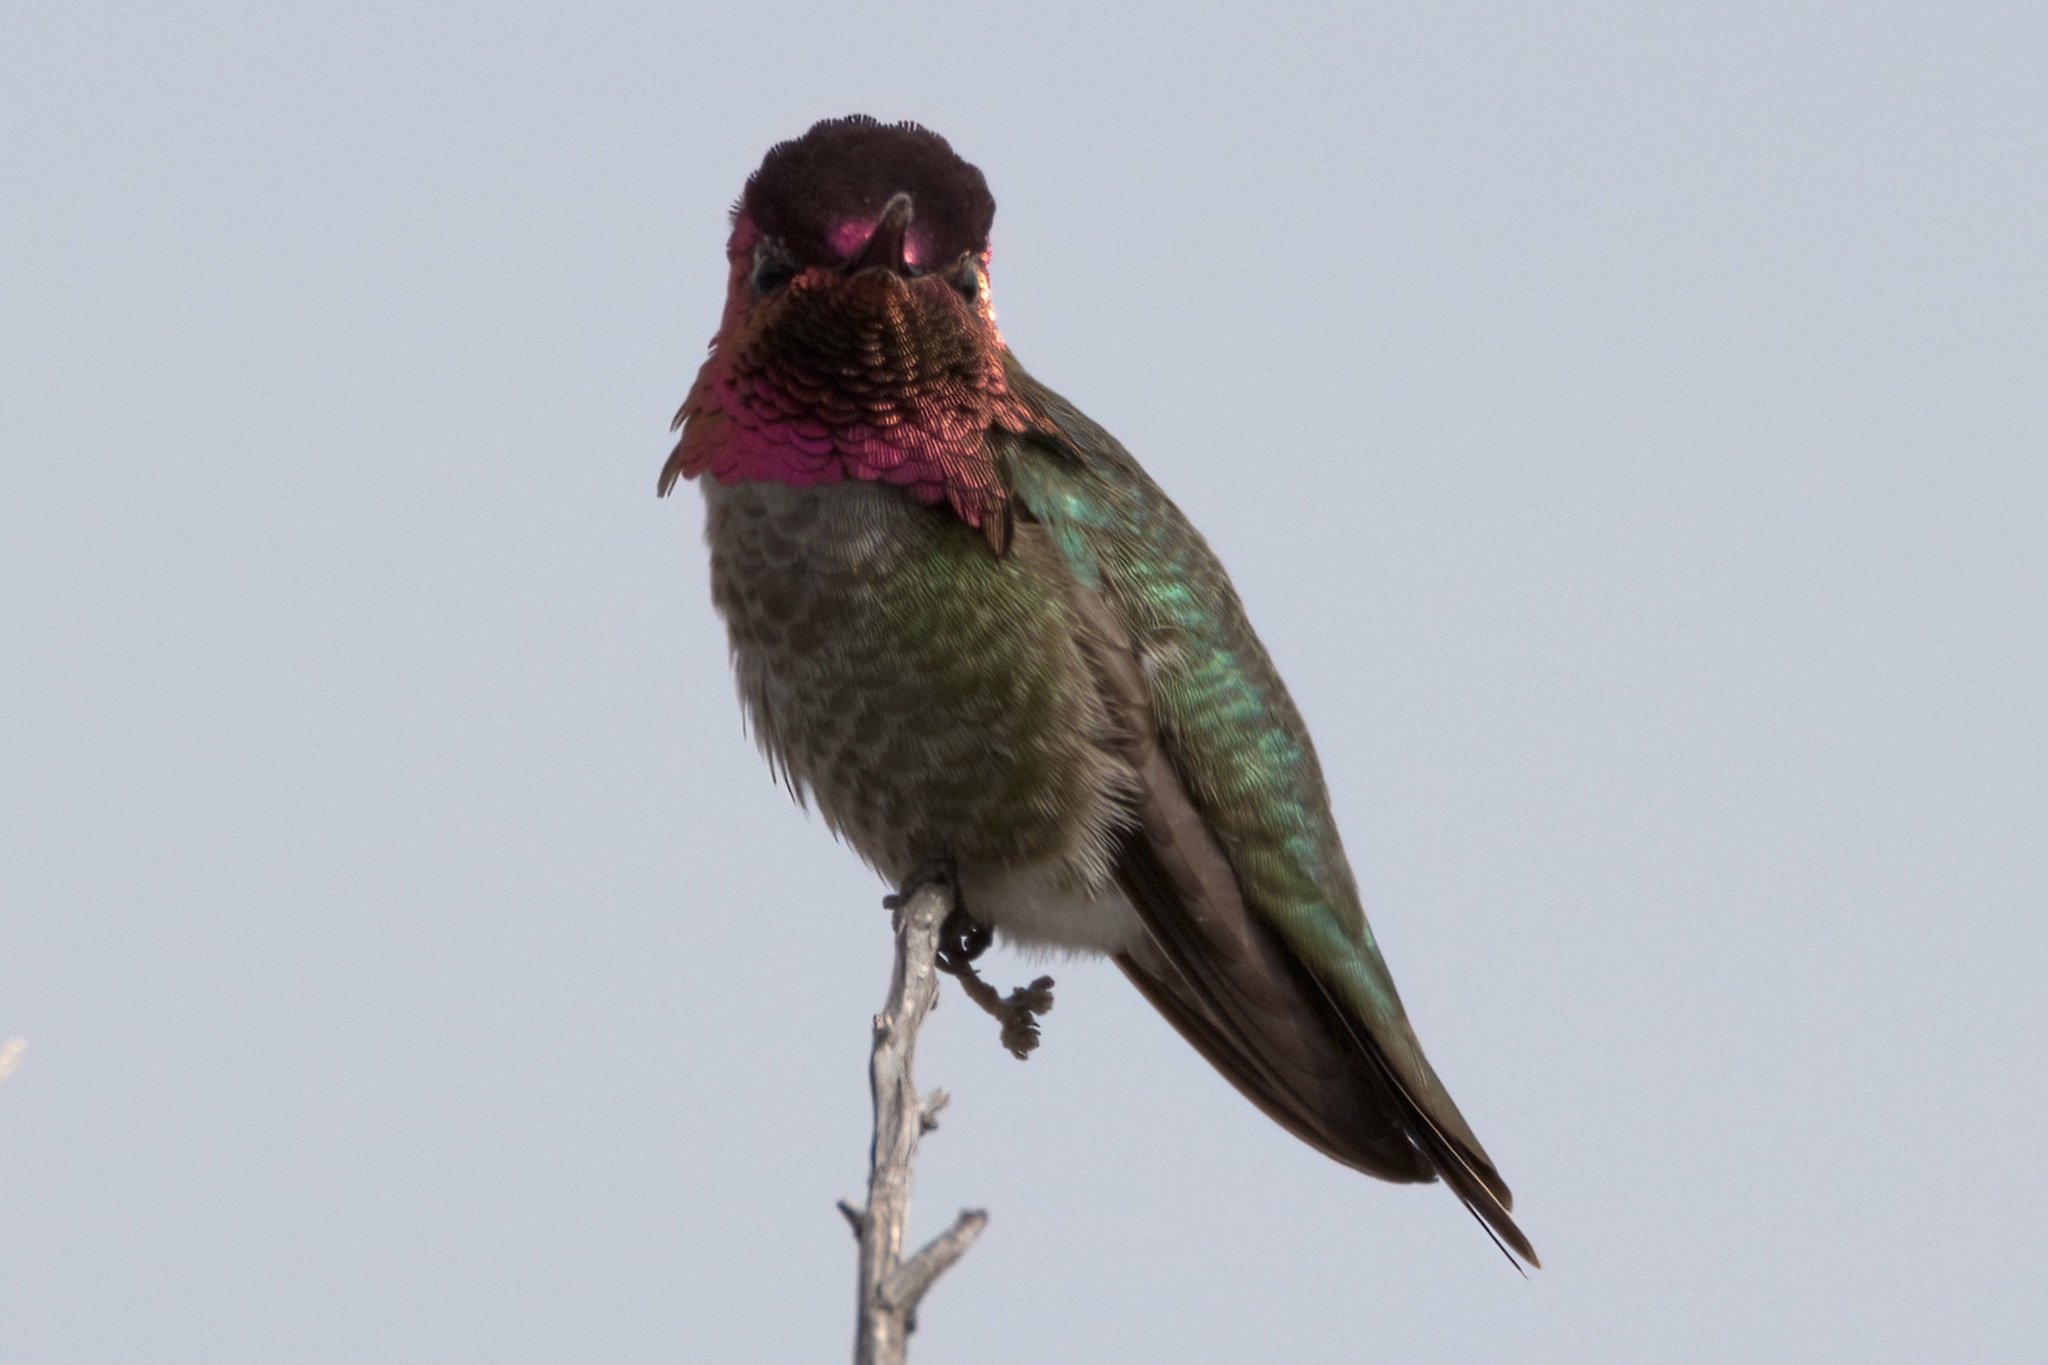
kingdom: Animalia
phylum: Chordata
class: Aves
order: Apodiformes
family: Trochilidae
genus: Calypte
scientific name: Calypte anna
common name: Anna's hummingbird
